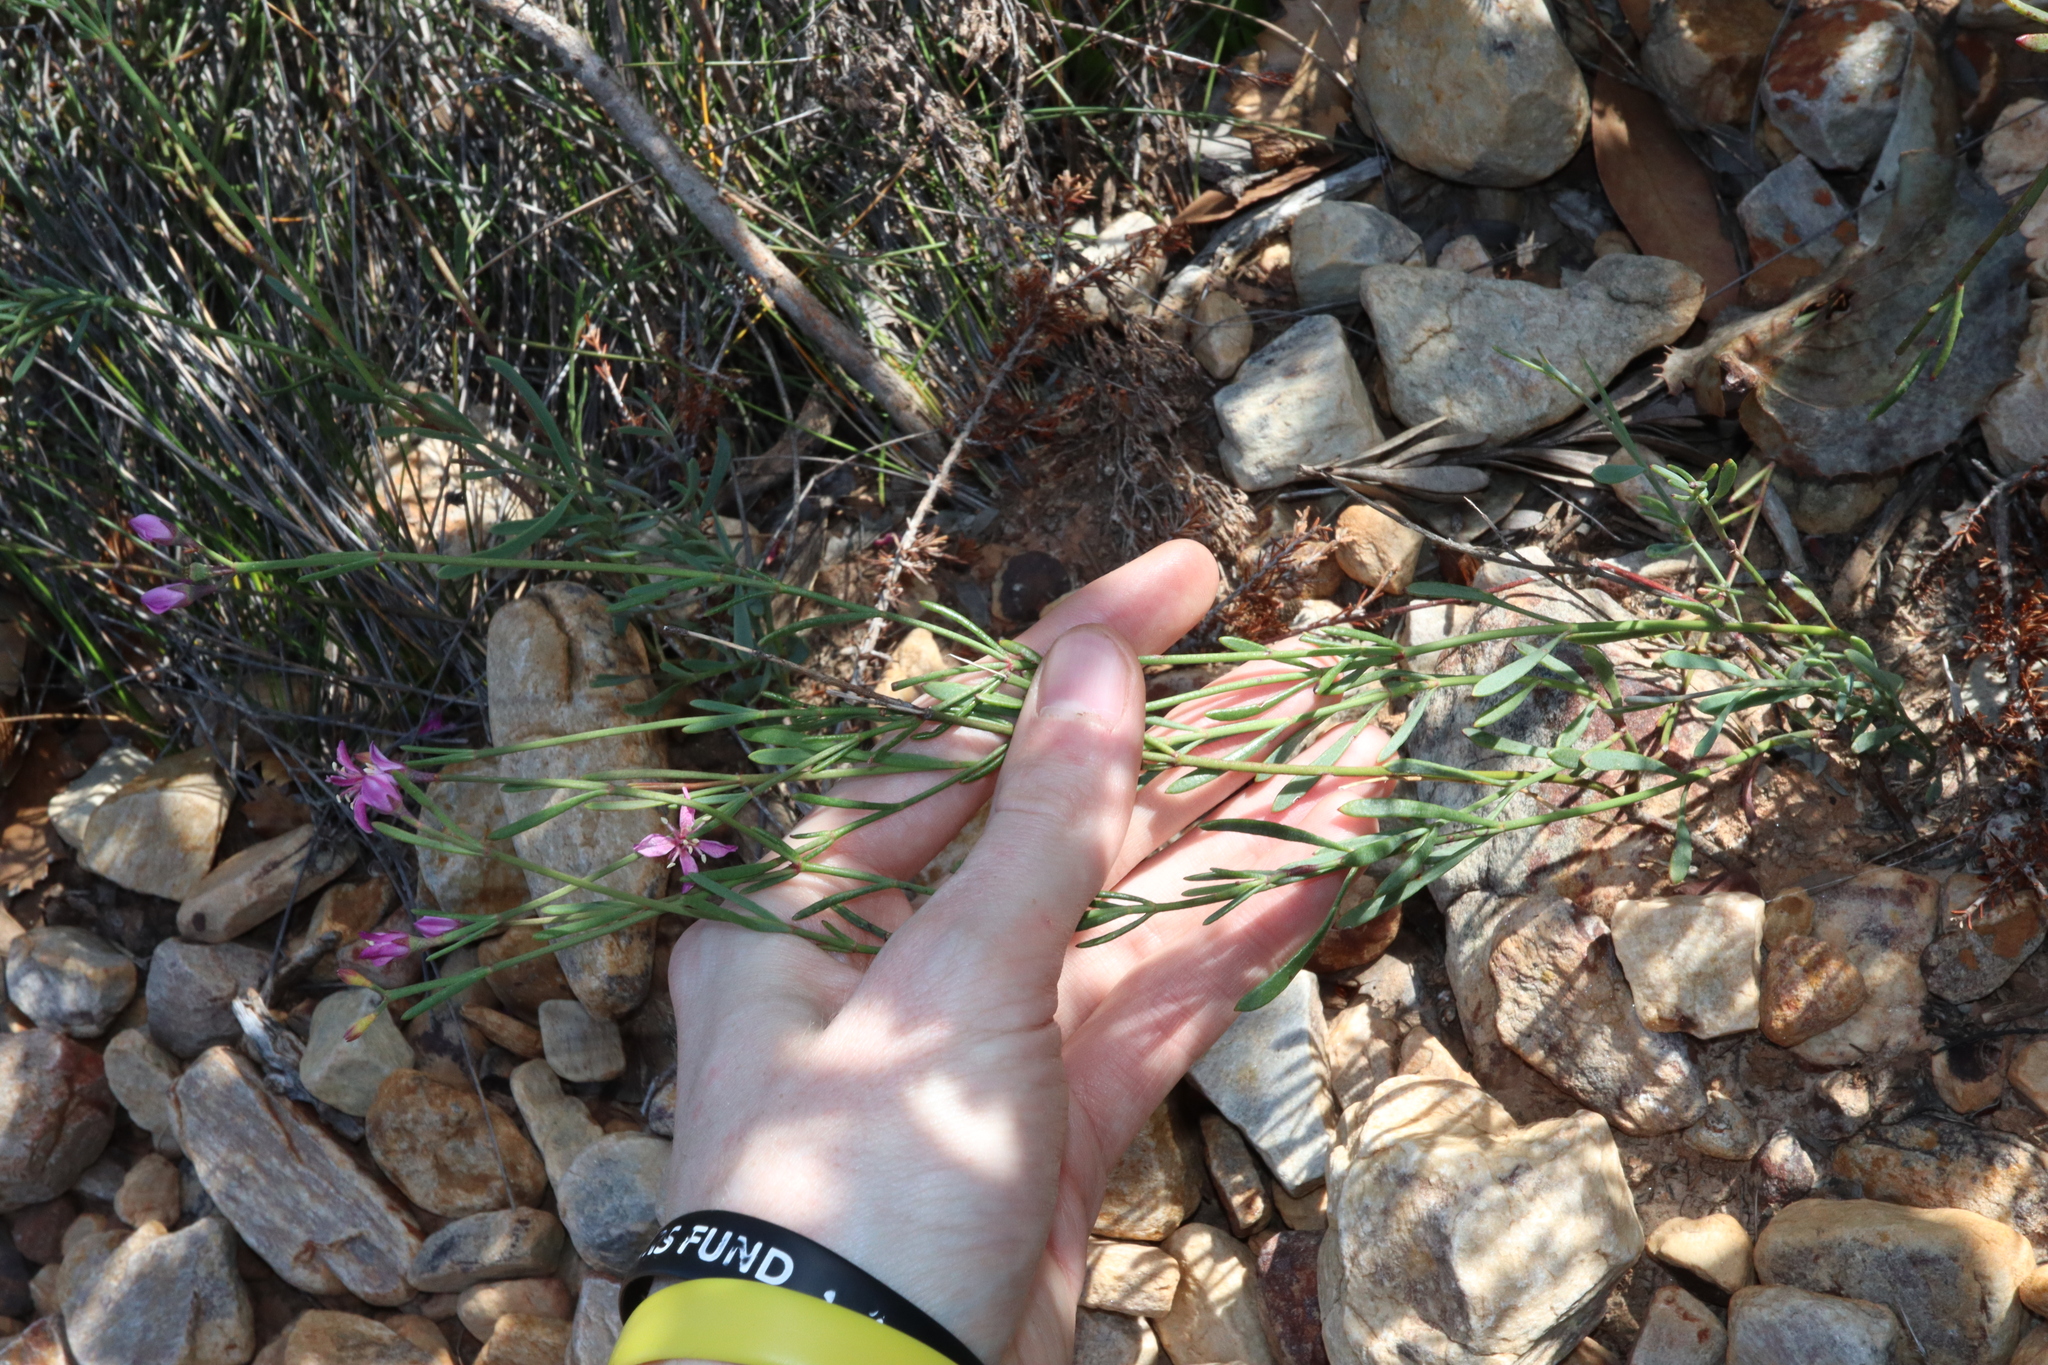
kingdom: Plantae
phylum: Tracheophyta
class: Magnoliopsida
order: Sapindales
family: Rutaceae
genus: Boronia
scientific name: Boronia spathulata
